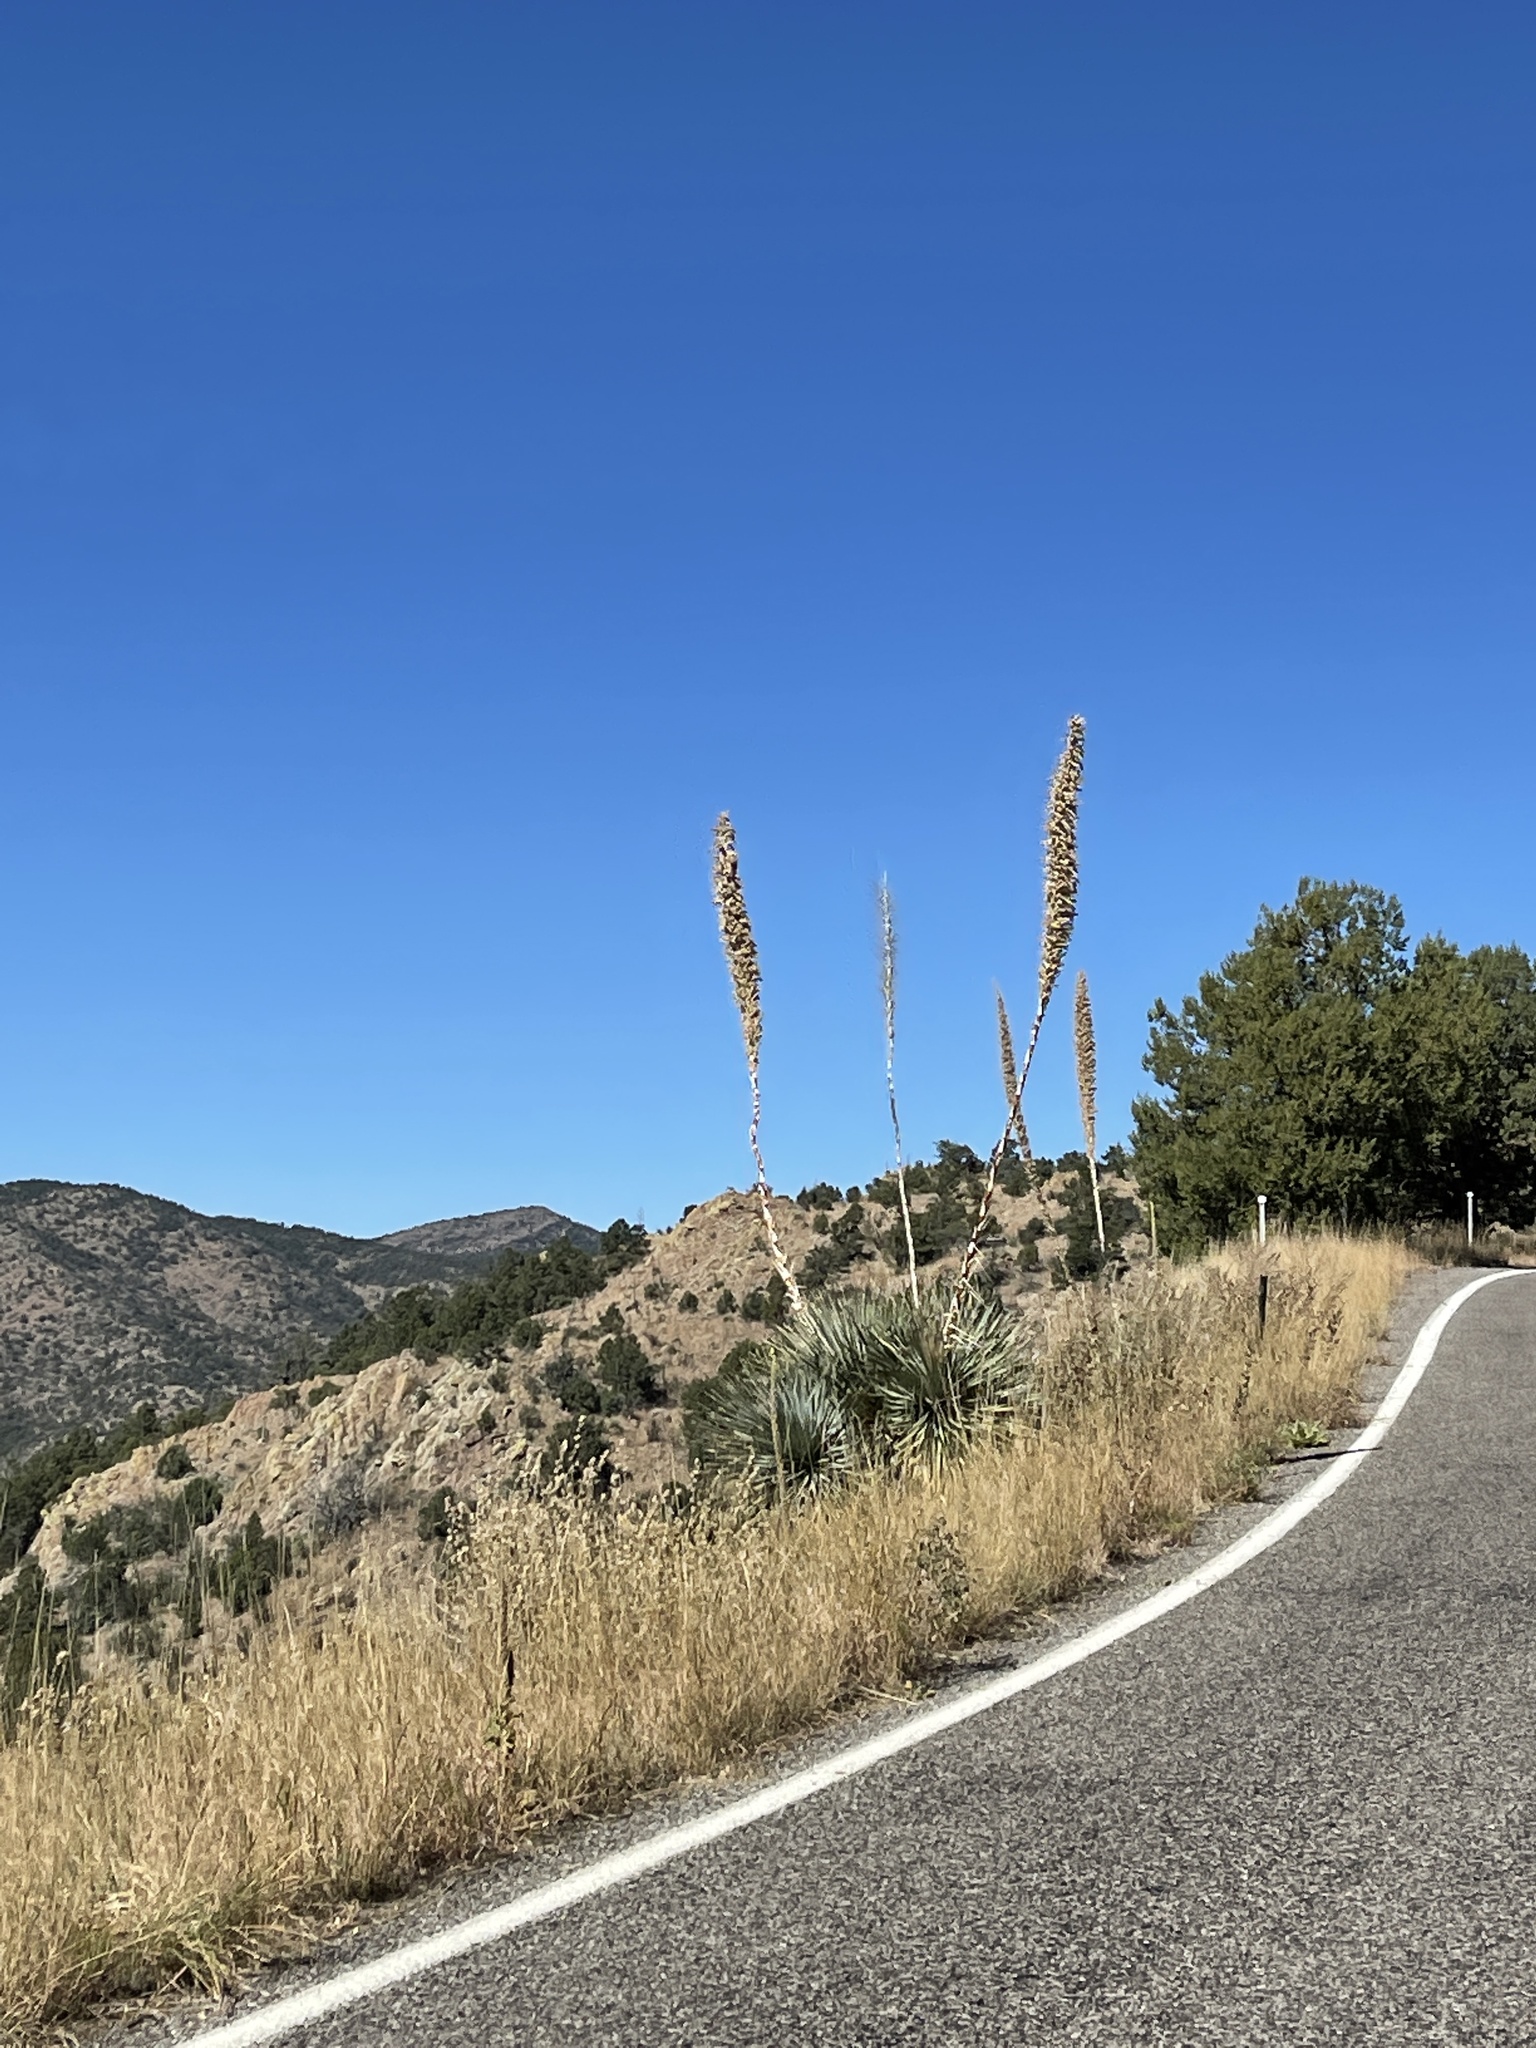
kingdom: Plantae
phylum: Tracheophyta
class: Liliopsida
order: Asparagales
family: Asparagaceae
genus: Dasylirion
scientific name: Dasylirion wheeleri
